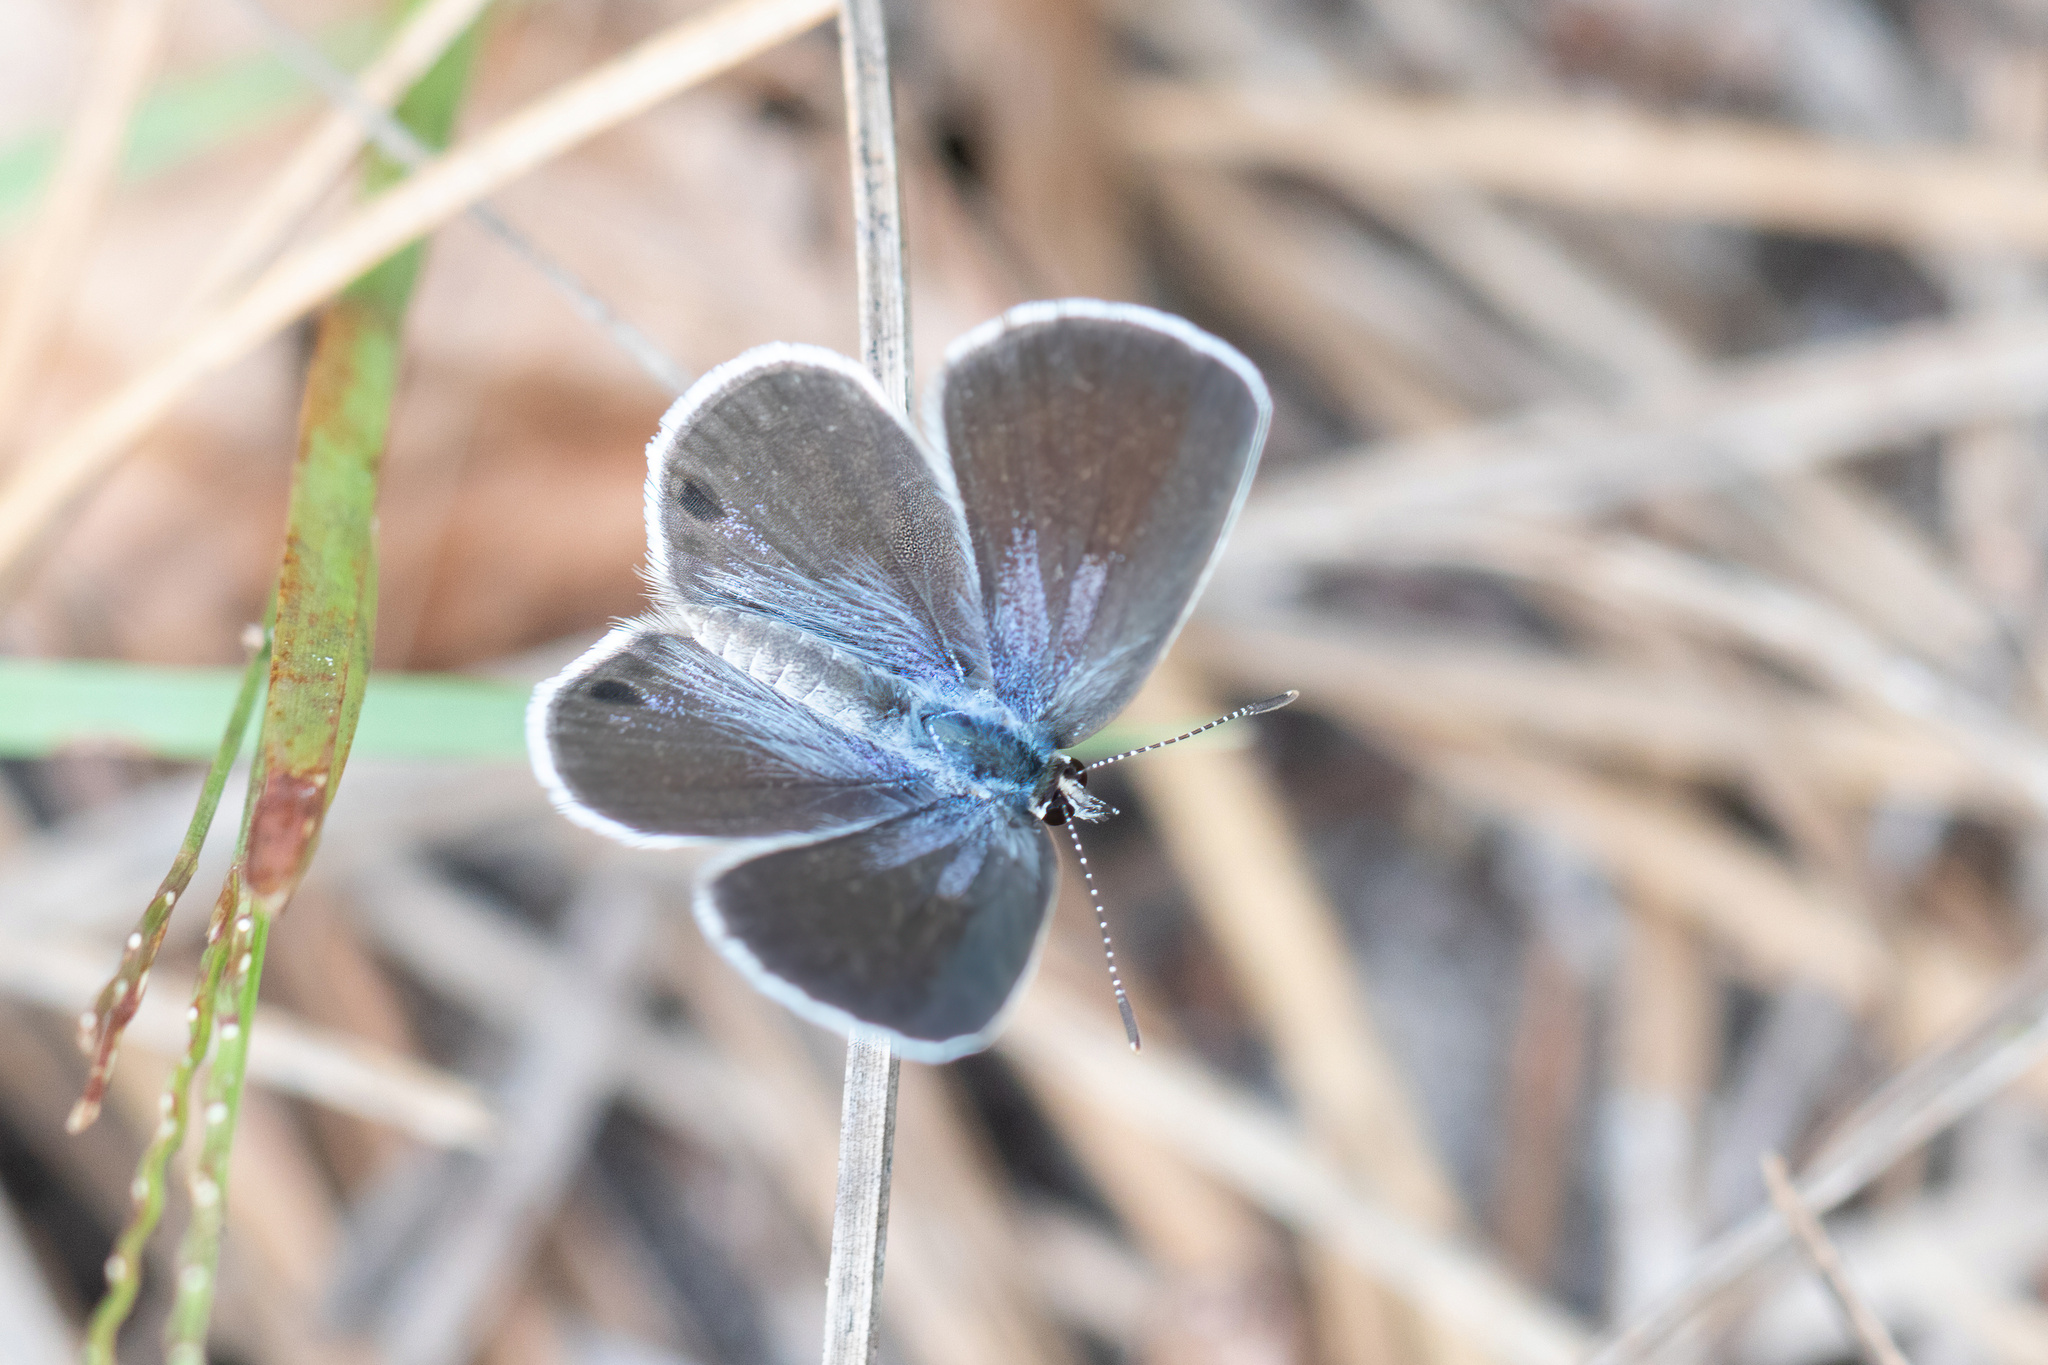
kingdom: Animalia
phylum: Arthropoda
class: Insecta
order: Lepidoptera
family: Lycaenidae
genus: Hemiargus
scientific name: Hemiargus ceraunus
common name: Ceraunus blue
